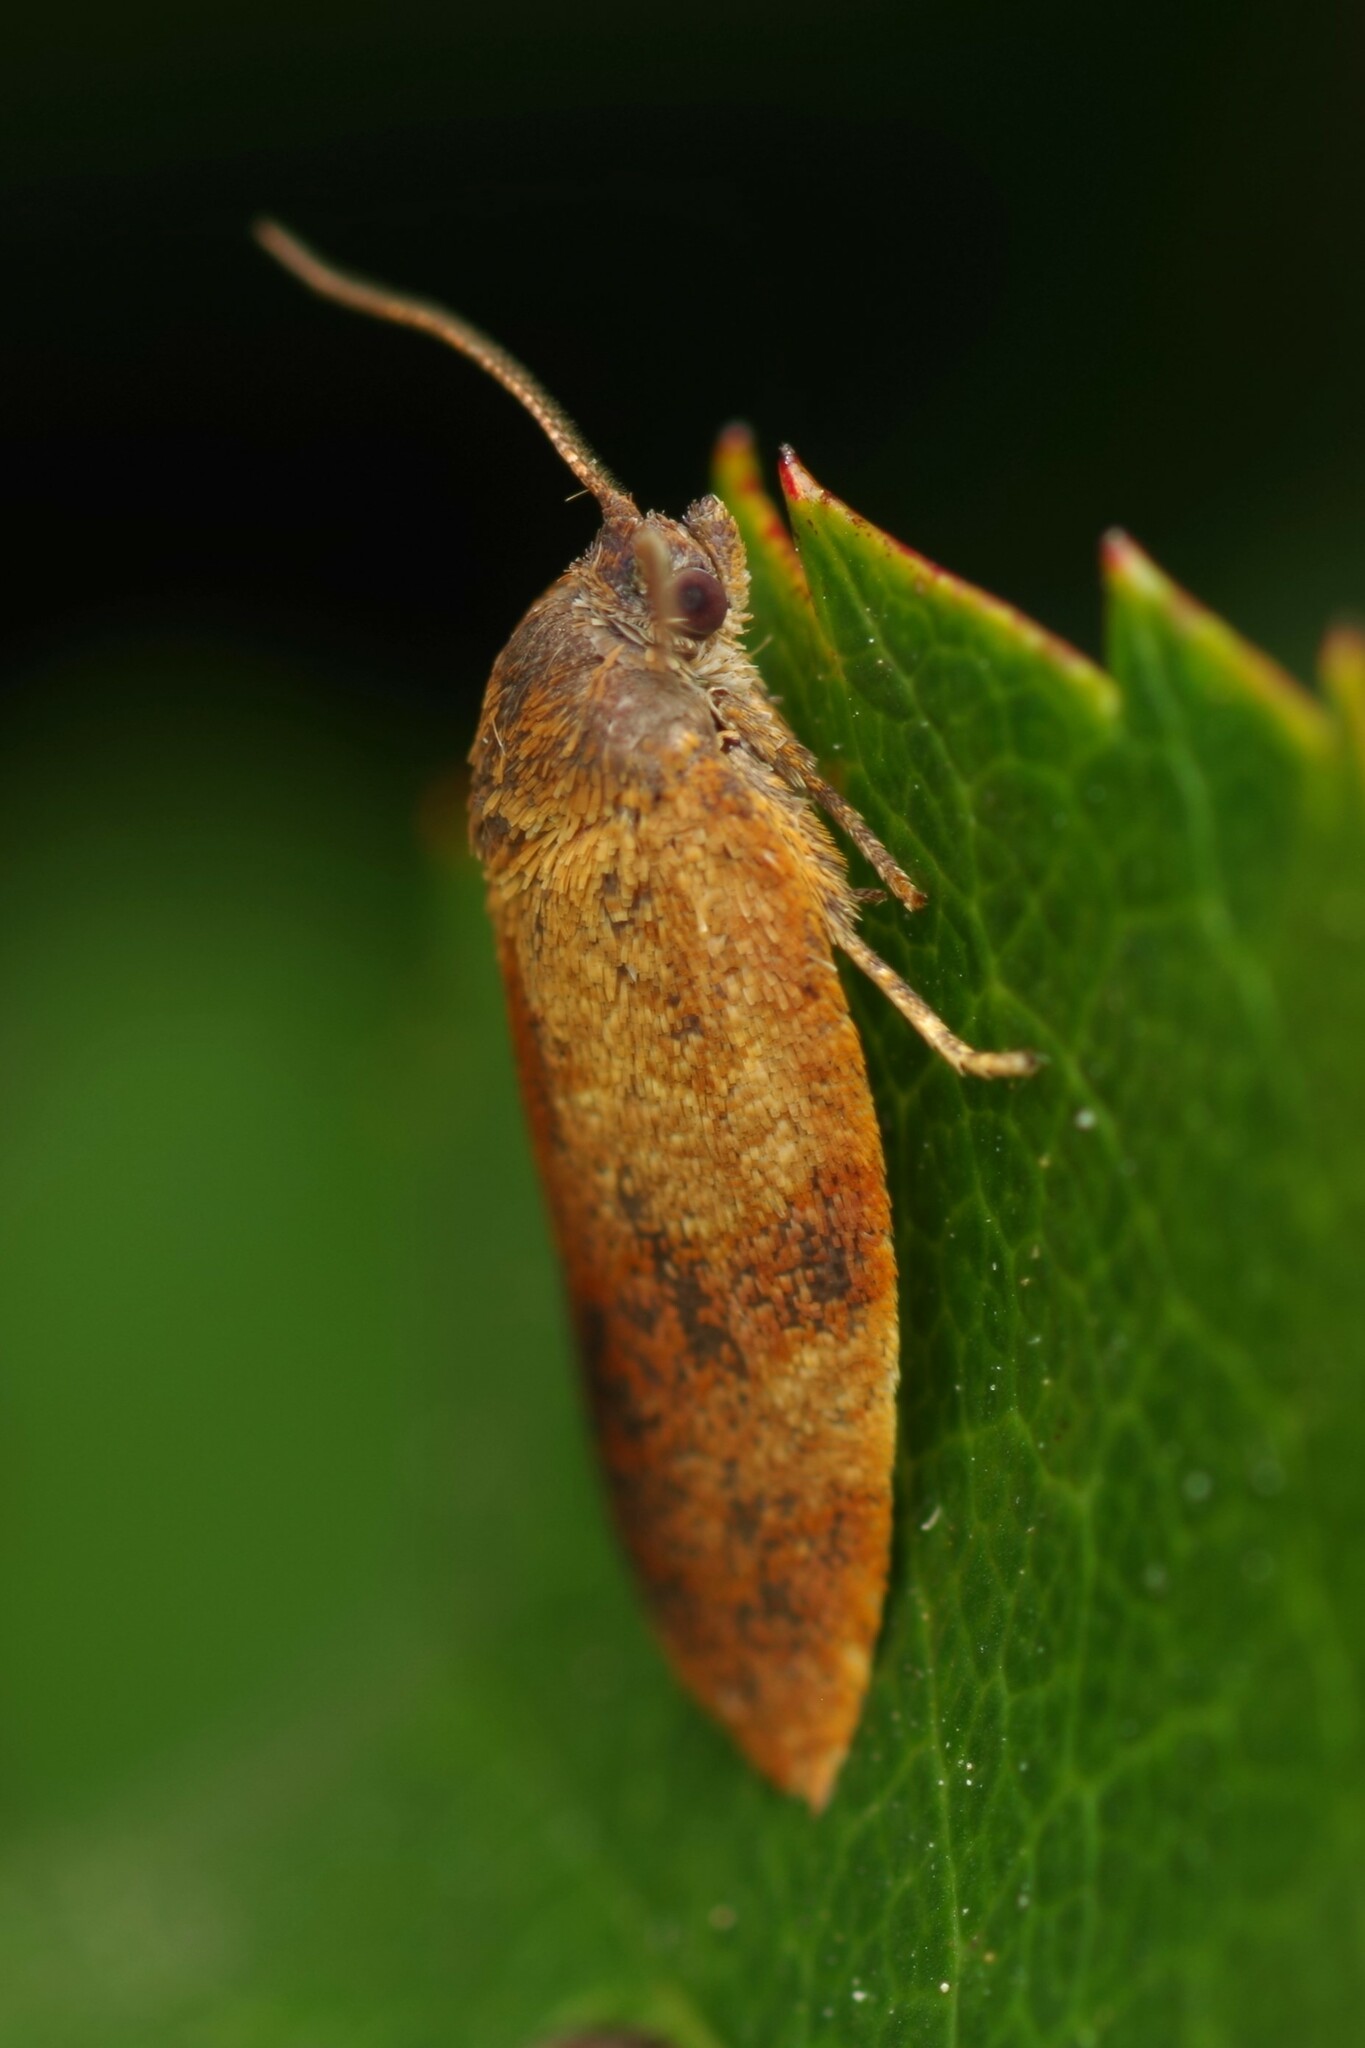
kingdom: Animalia
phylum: Arthropoda
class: Insecta
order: Lepidoptera
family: Tortricidae
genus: Cacoecimorpha
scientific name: Cacoecimorpha pronubana
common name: Carnation tortrix
